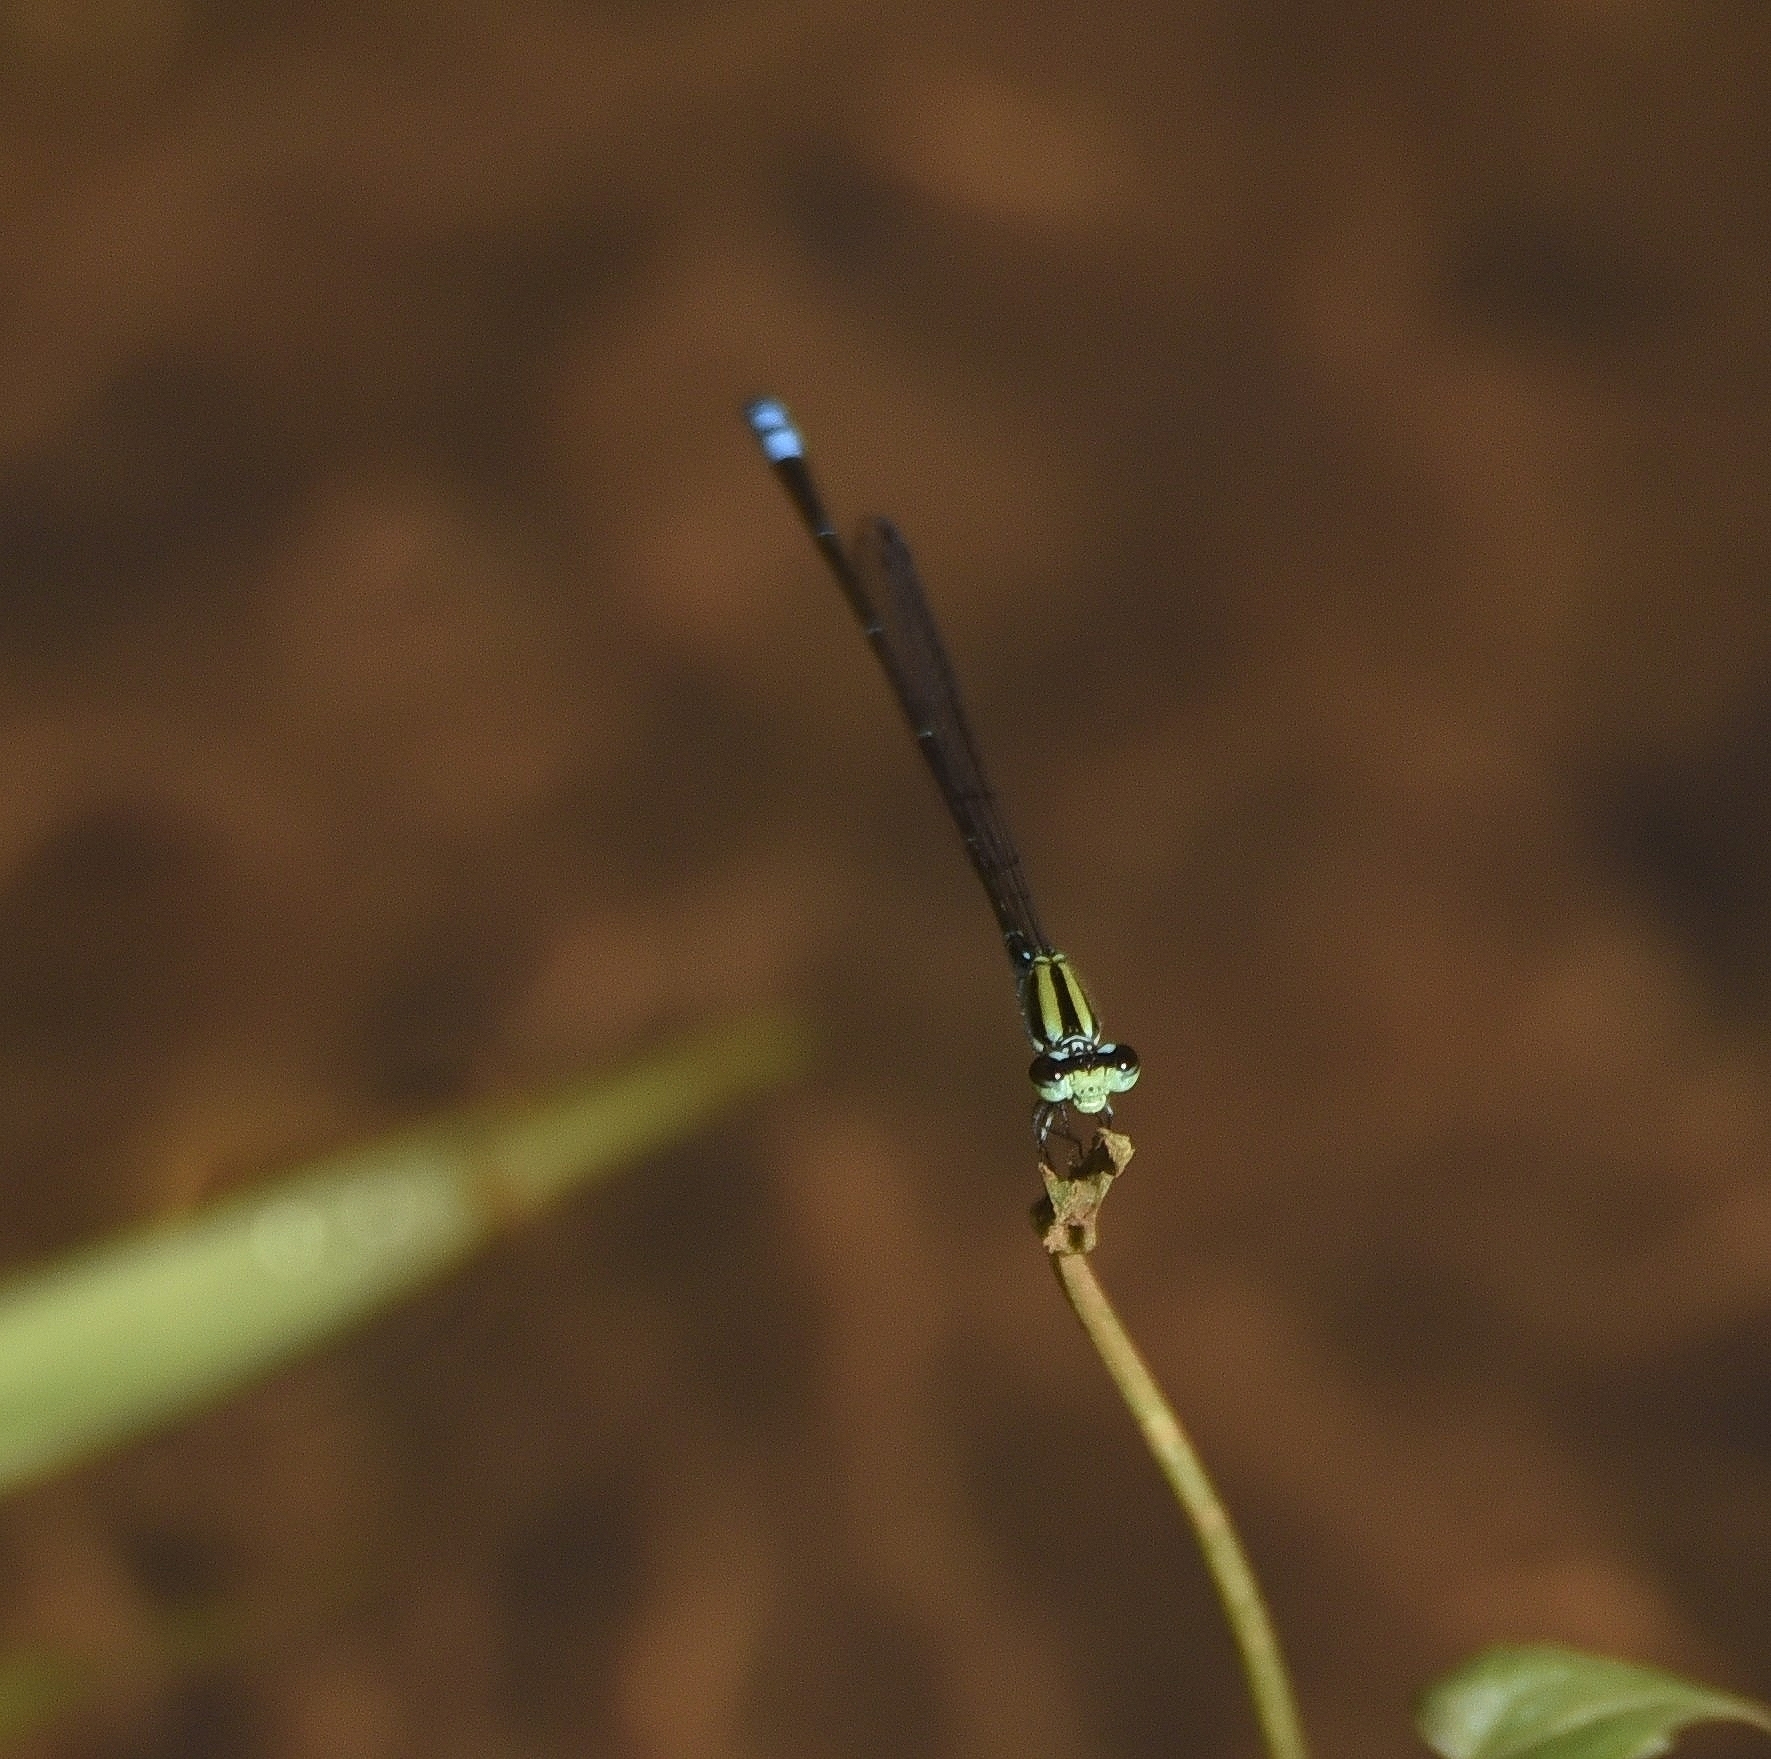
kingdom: Animalia
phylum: Arthropoda
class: Insecta
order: Odonata
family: Coenagrionidae
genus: Pseudagrion
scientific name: Pseudagrion indicum
